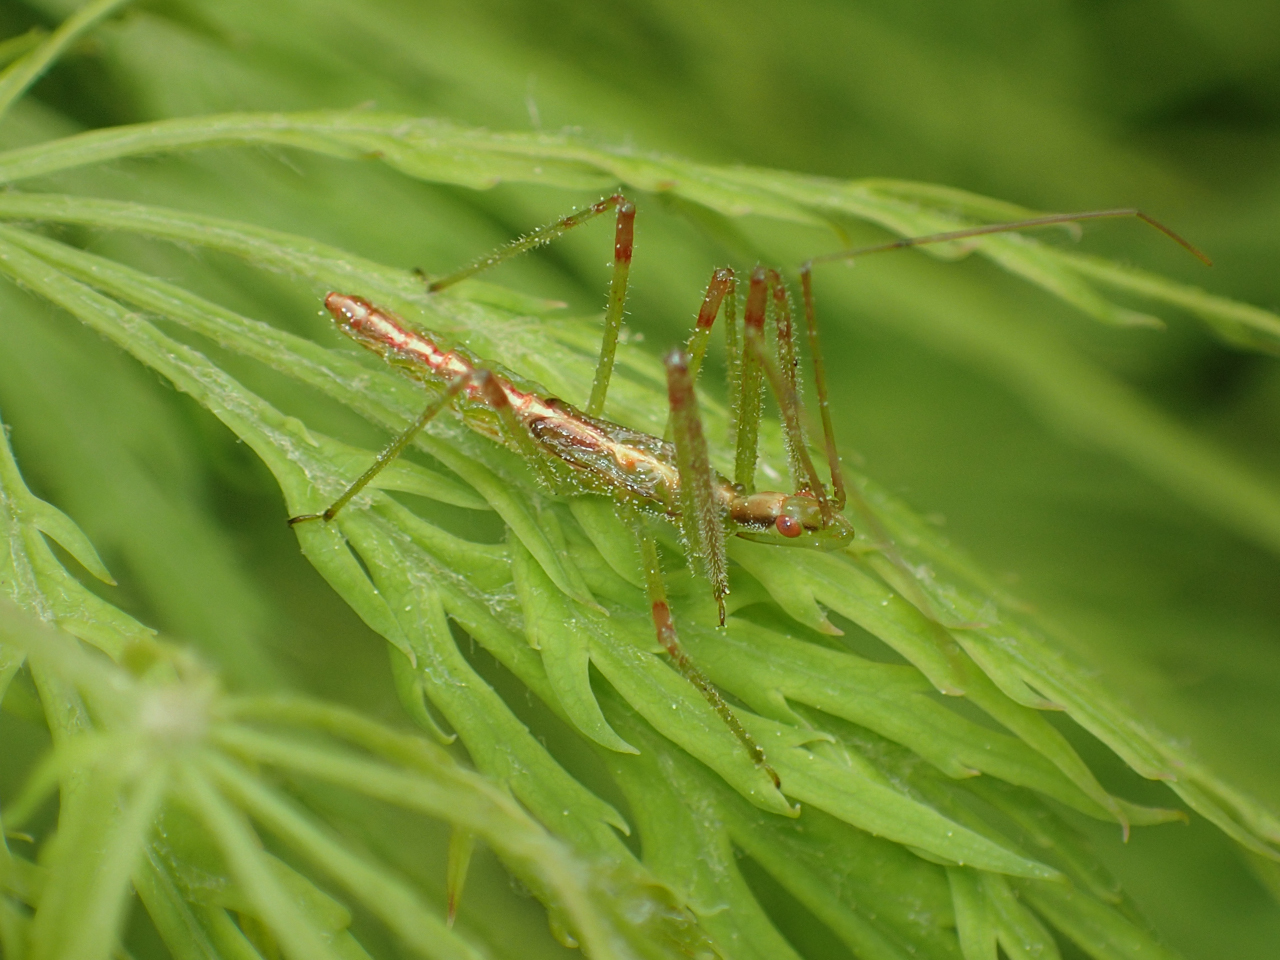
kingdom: Animalia
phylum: Arthropoda
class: Insecta
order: Hemiptera
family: Reduviidae
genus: Zelus
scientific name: Zelus luridus
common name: Pale green assassin bug
